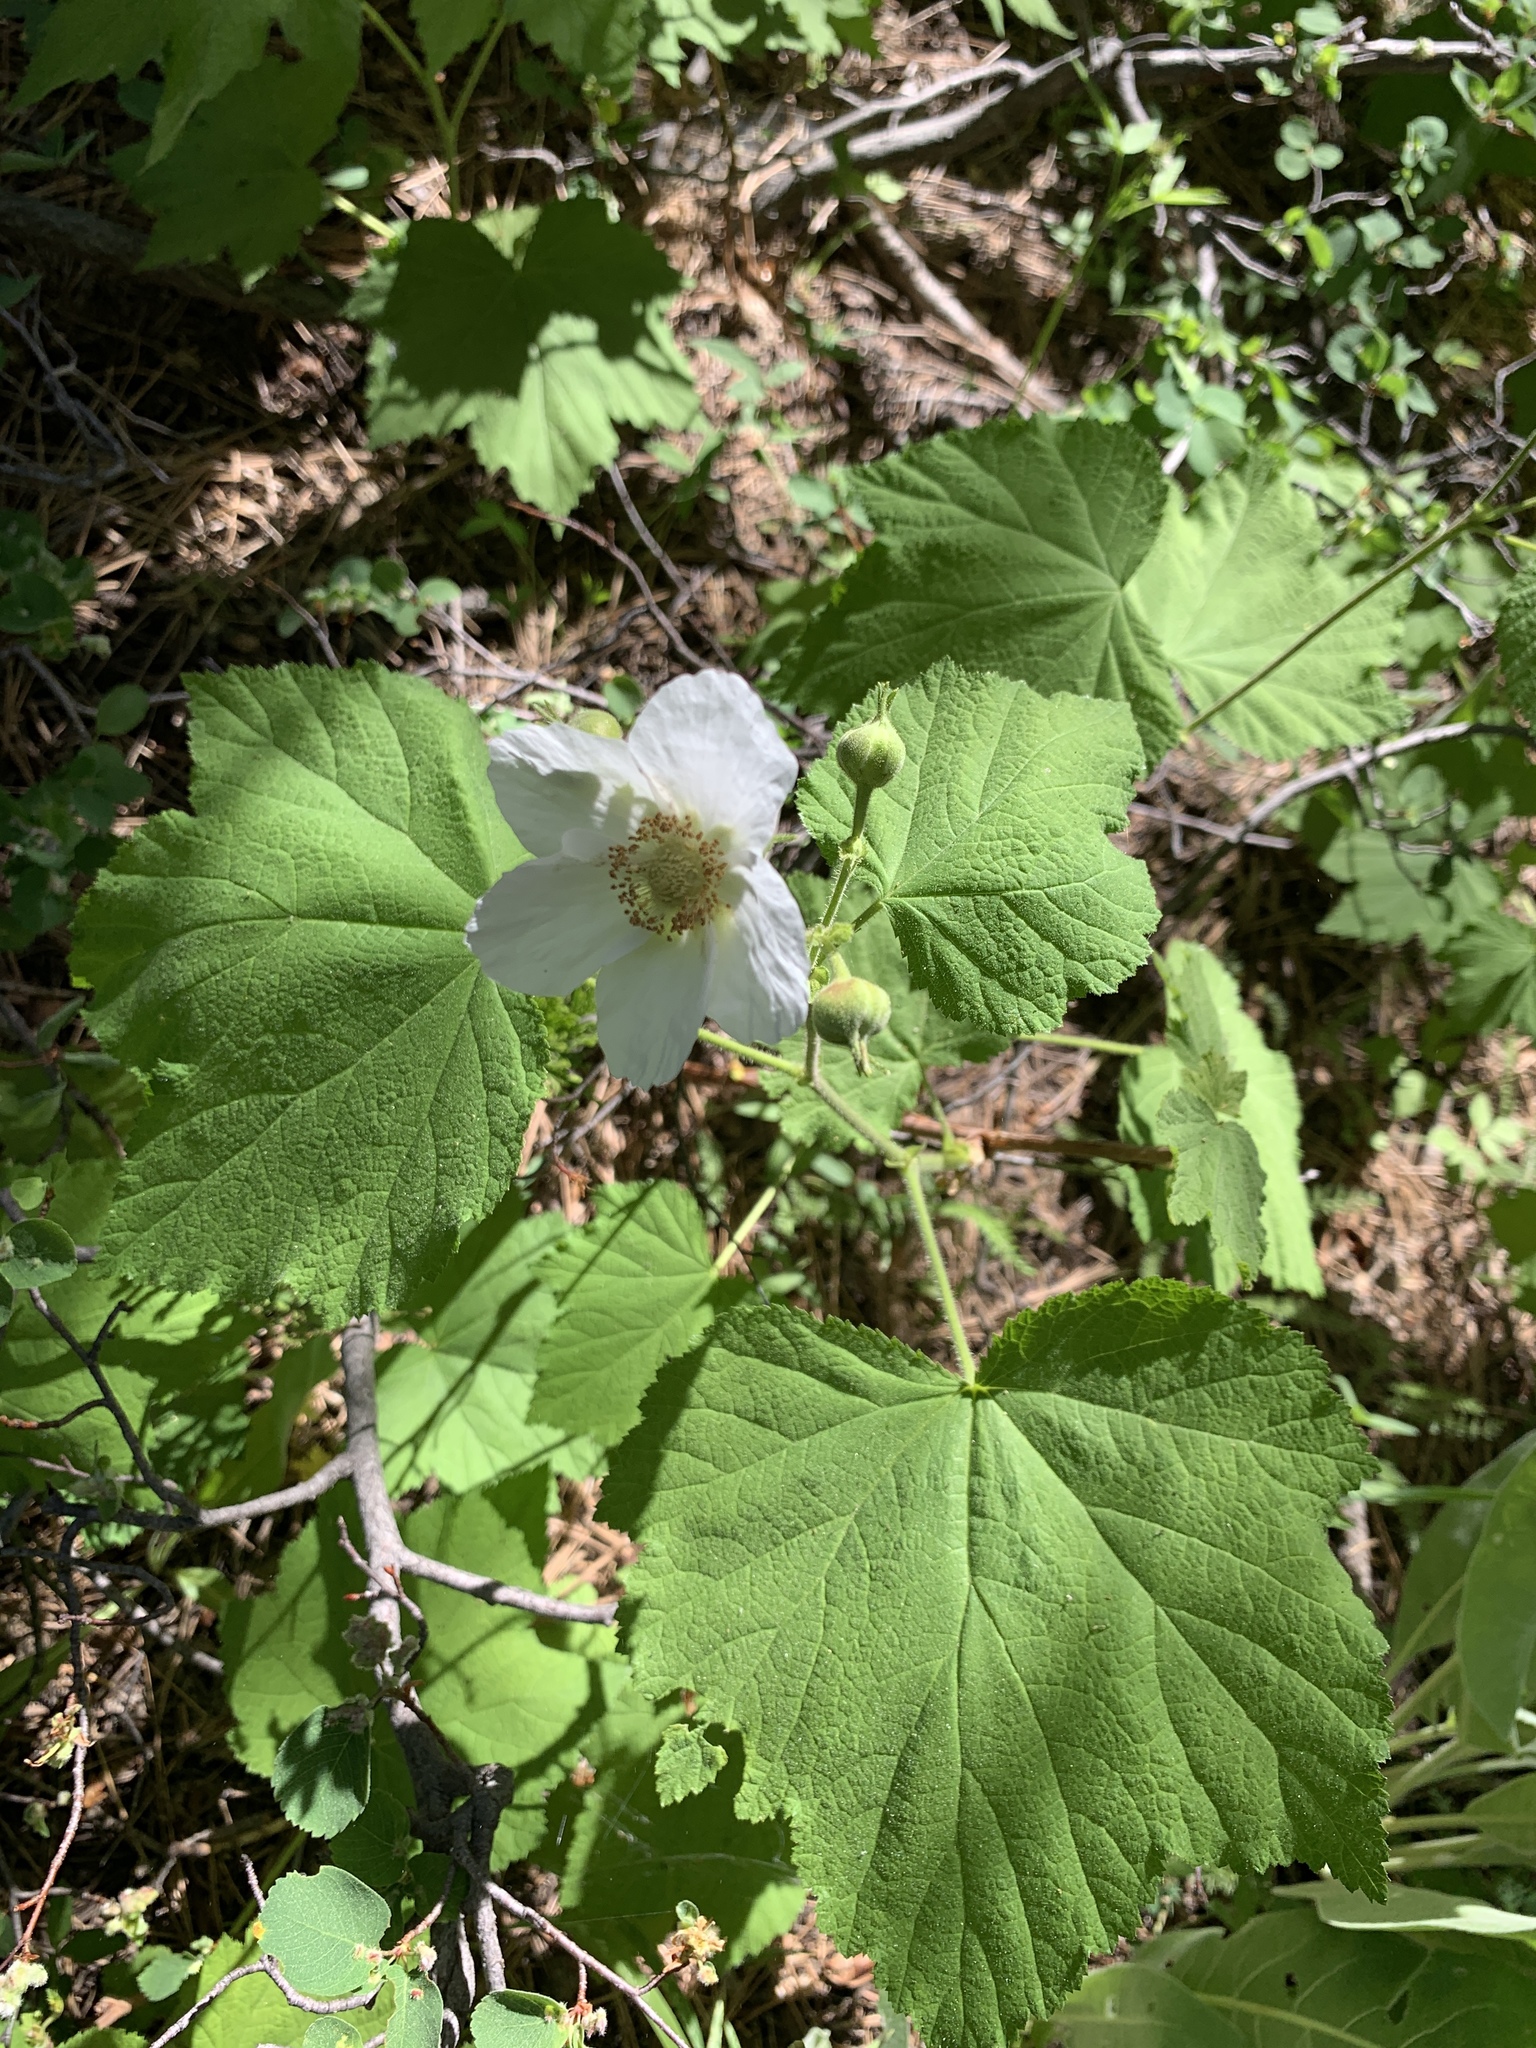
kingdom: Plantae
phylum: Tracheophyta
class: Magnoliopsida
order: Rosales
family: Rosaceae
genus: Rubus
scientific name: Rubus parviflorus
